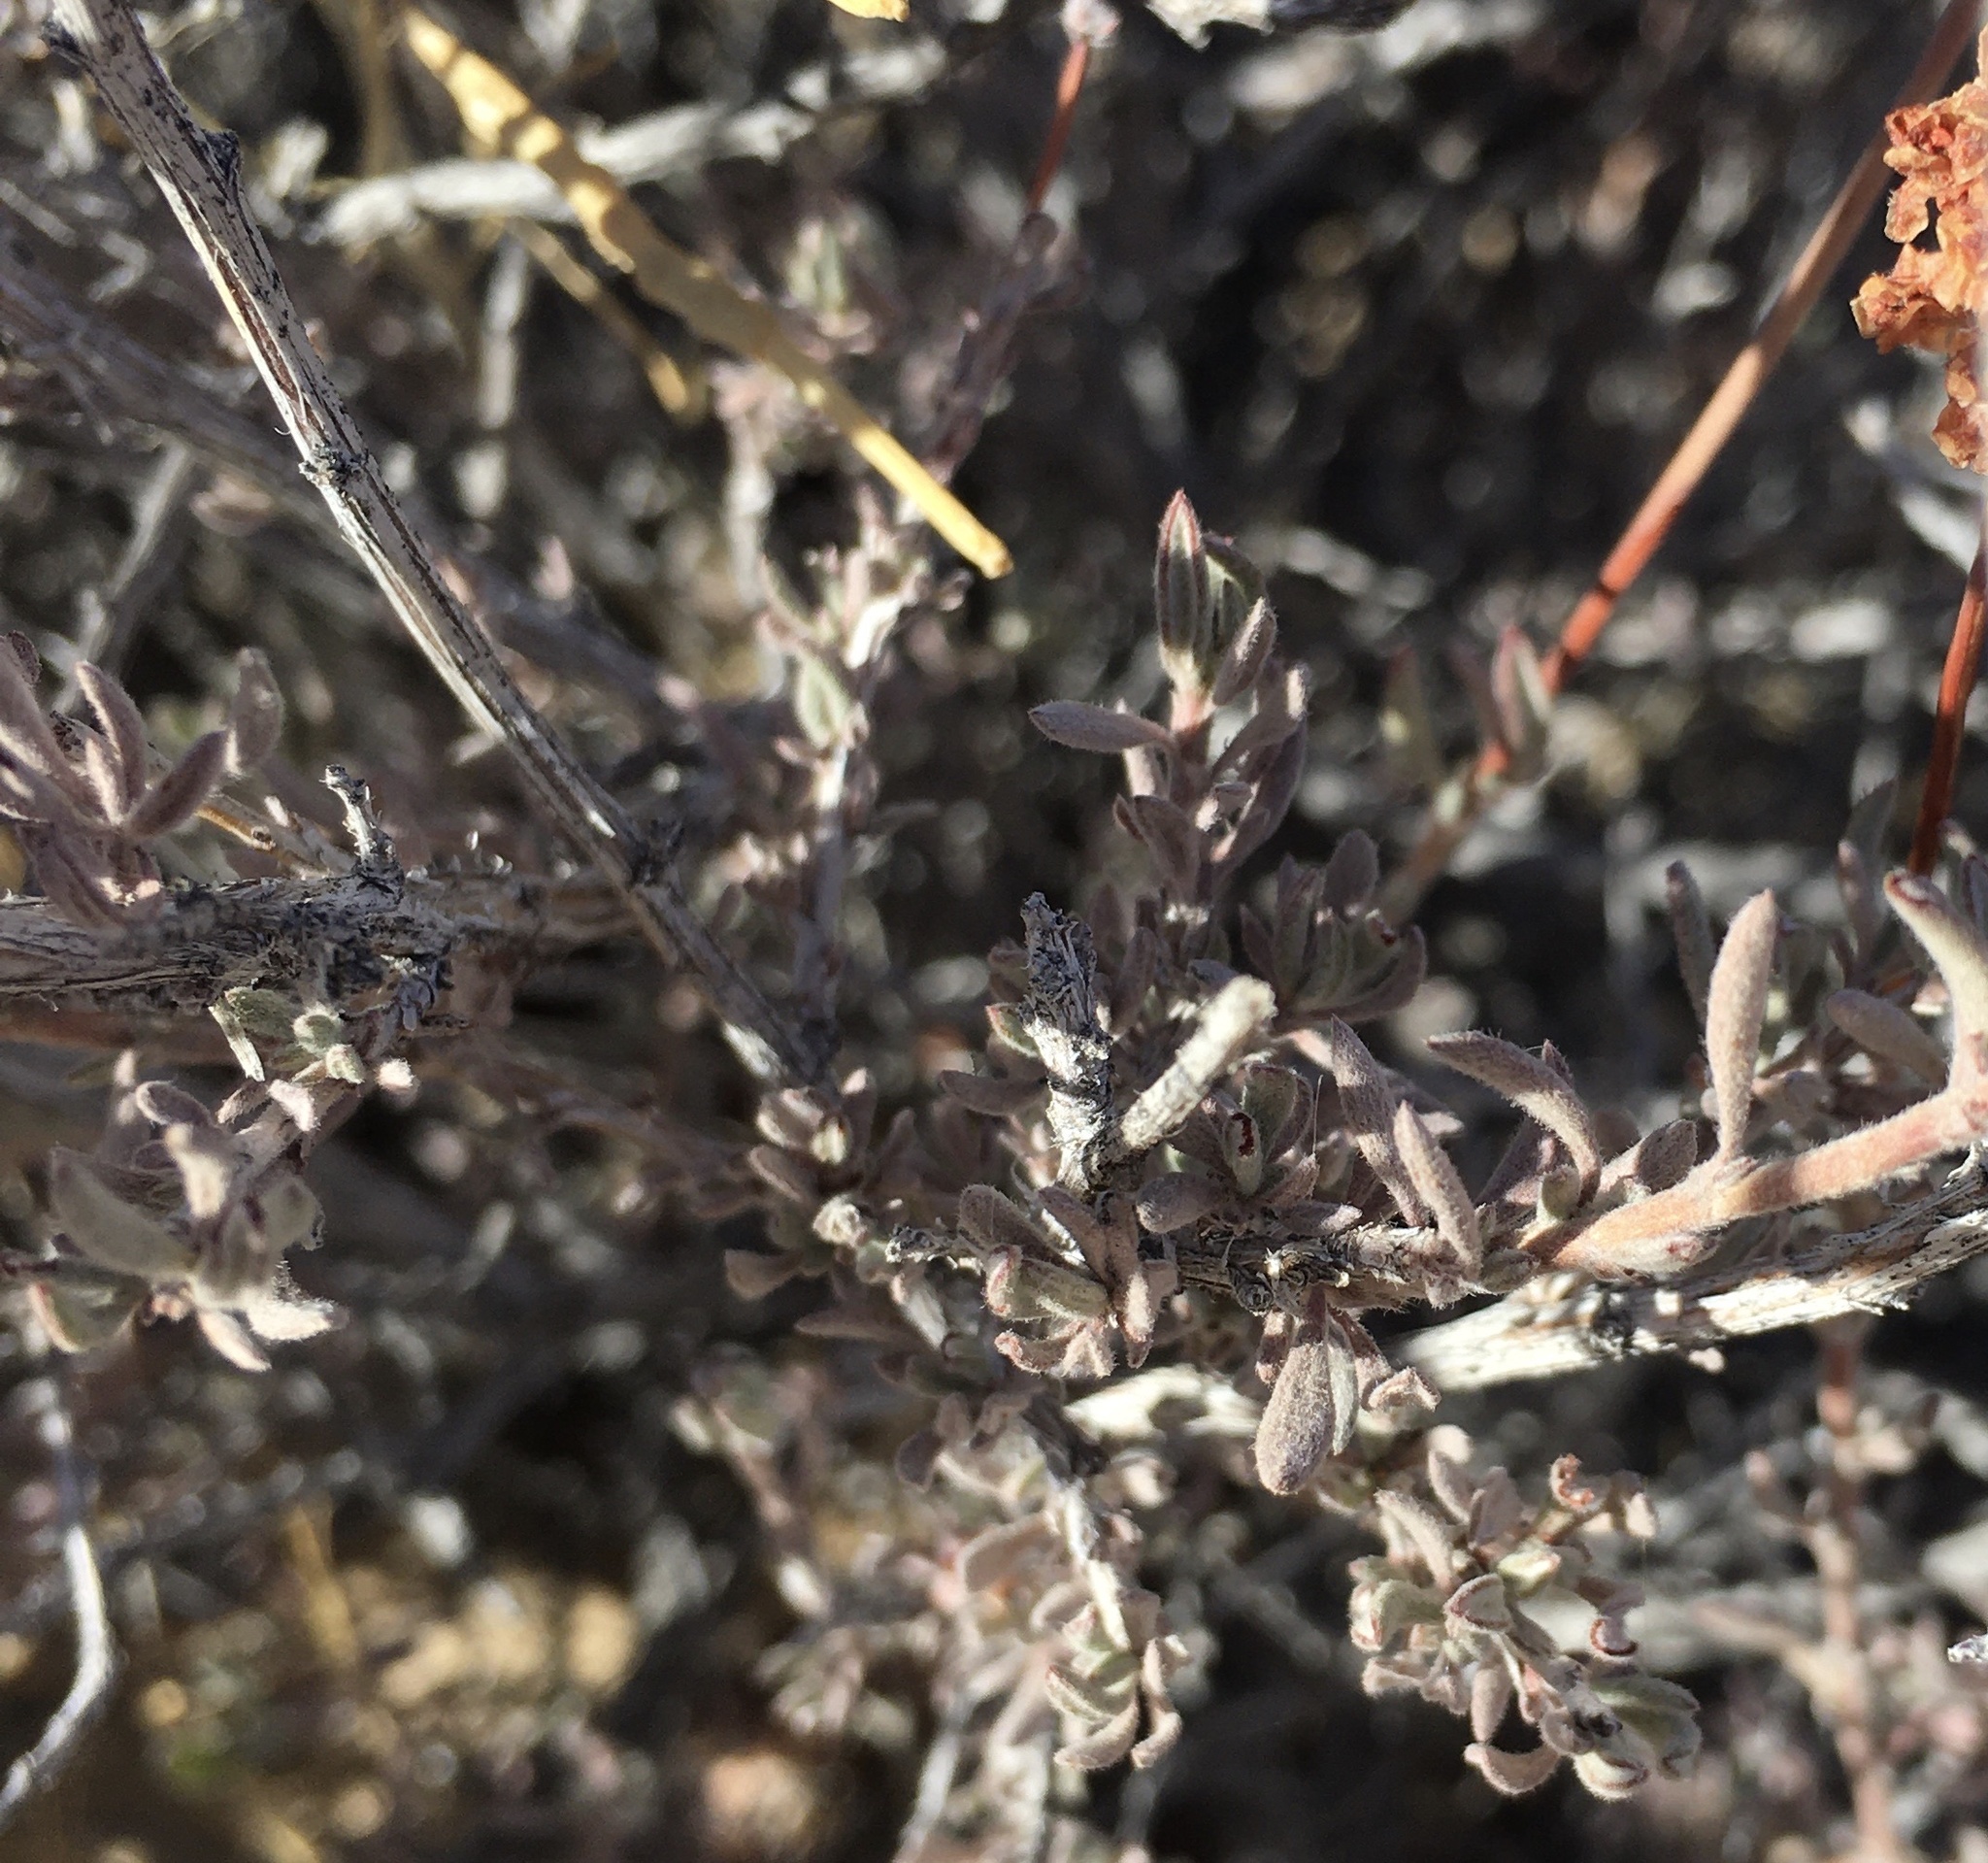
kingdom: Plantae
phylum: Tracheophyta
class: Magnoliopsida
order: Caryophyllales
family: Polygonaceae
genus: Eriogonum
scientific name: Eriogonum fasciculatum
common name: California wild buckwheat
